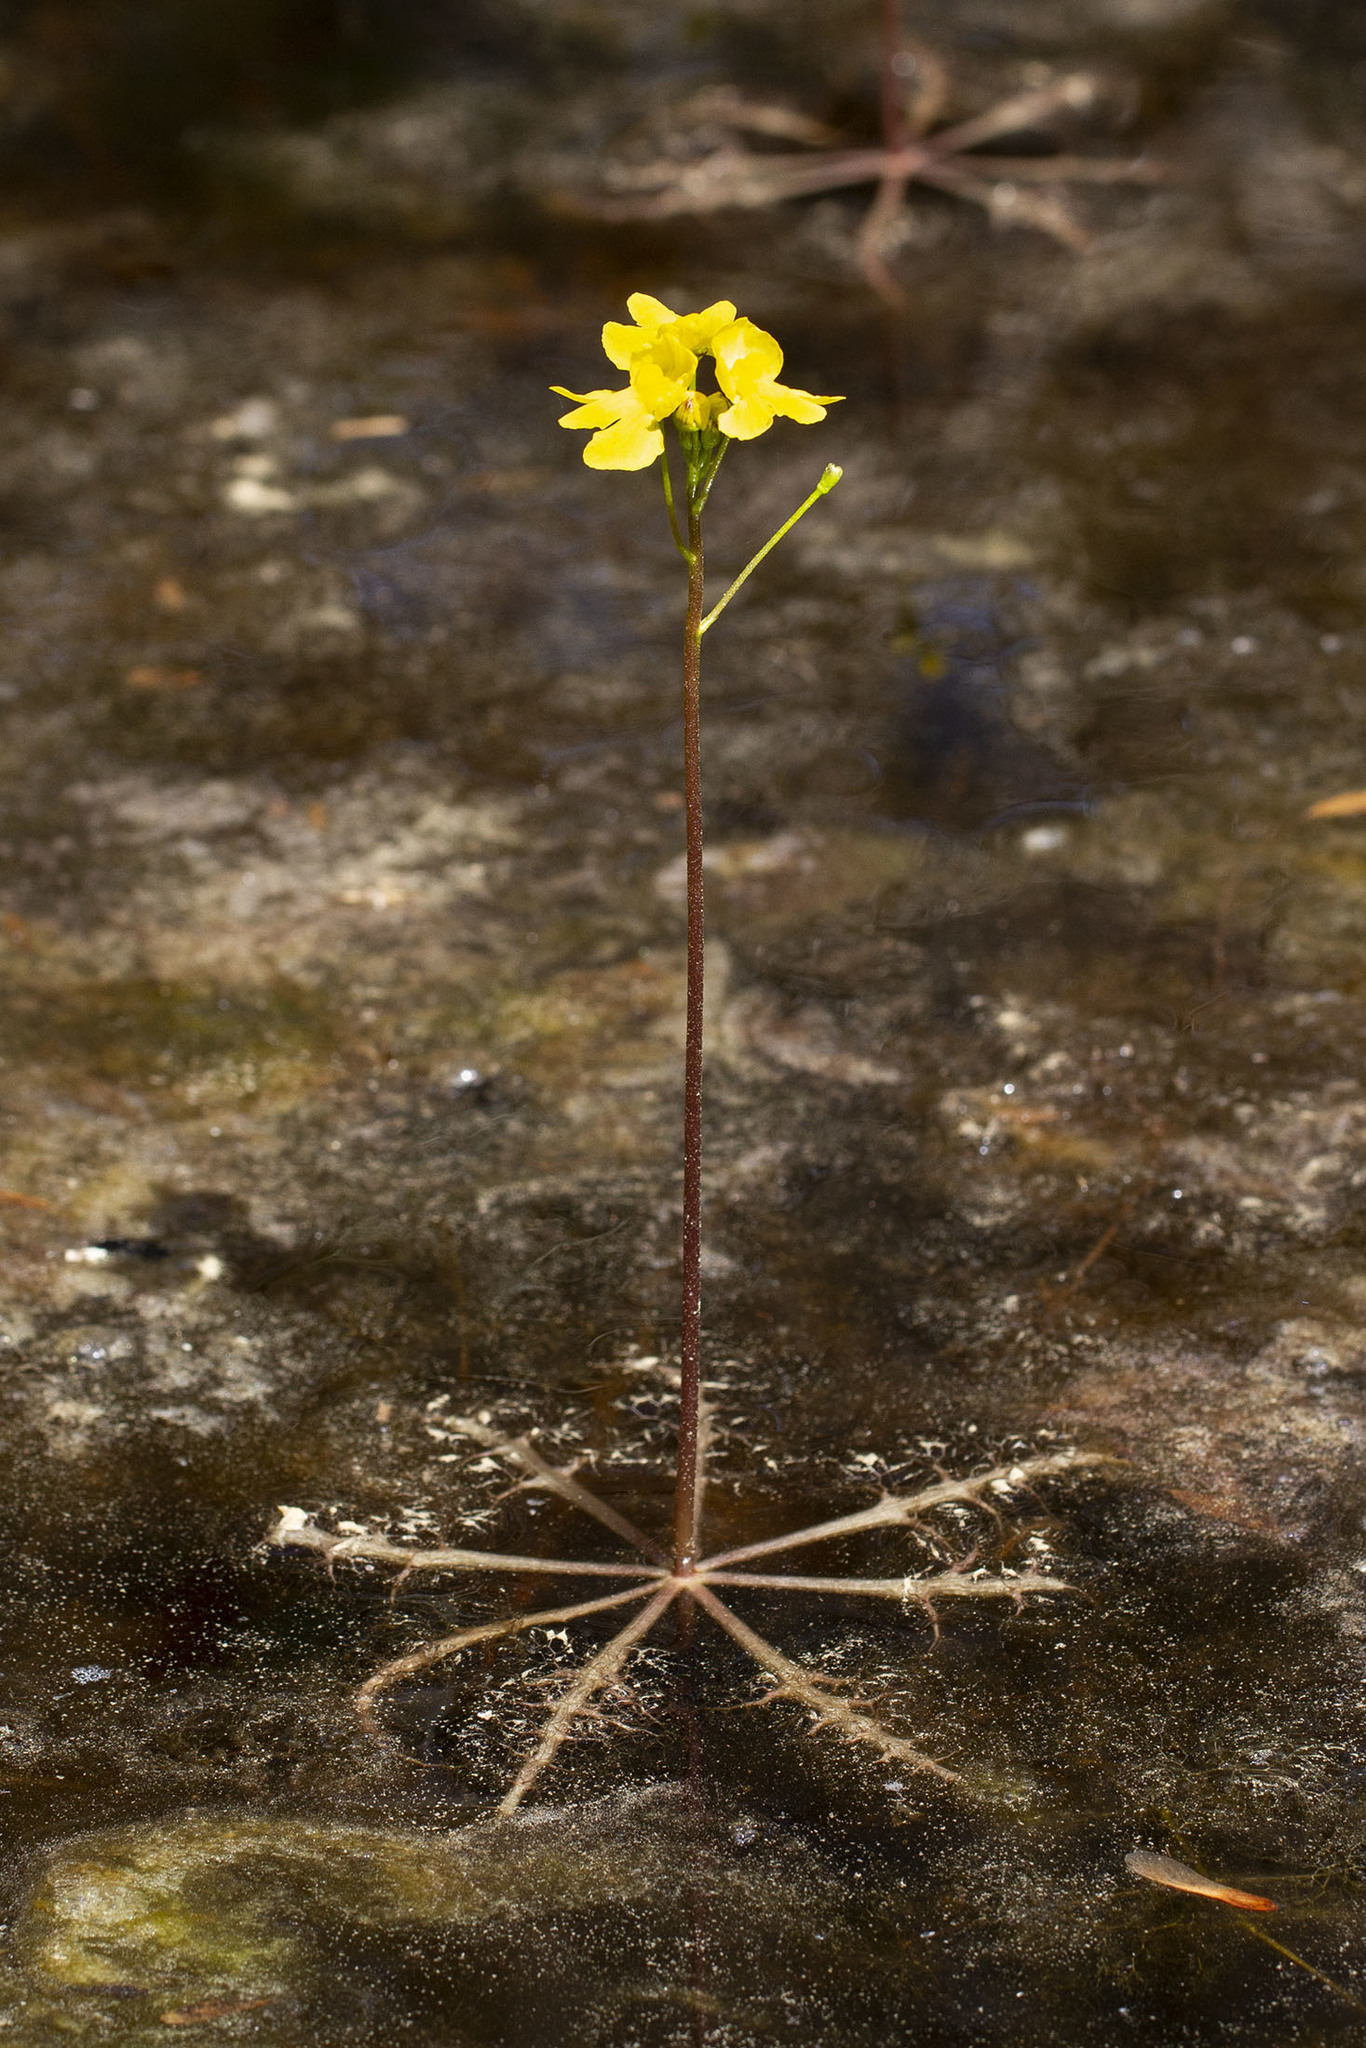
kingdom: Plantae
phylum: Tracheophyta
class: Magnoliopsida
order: Lamiales
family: Lentibulariaceae
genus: Utricularia
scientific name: Utricularia inflata
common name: Floating bladderwort
